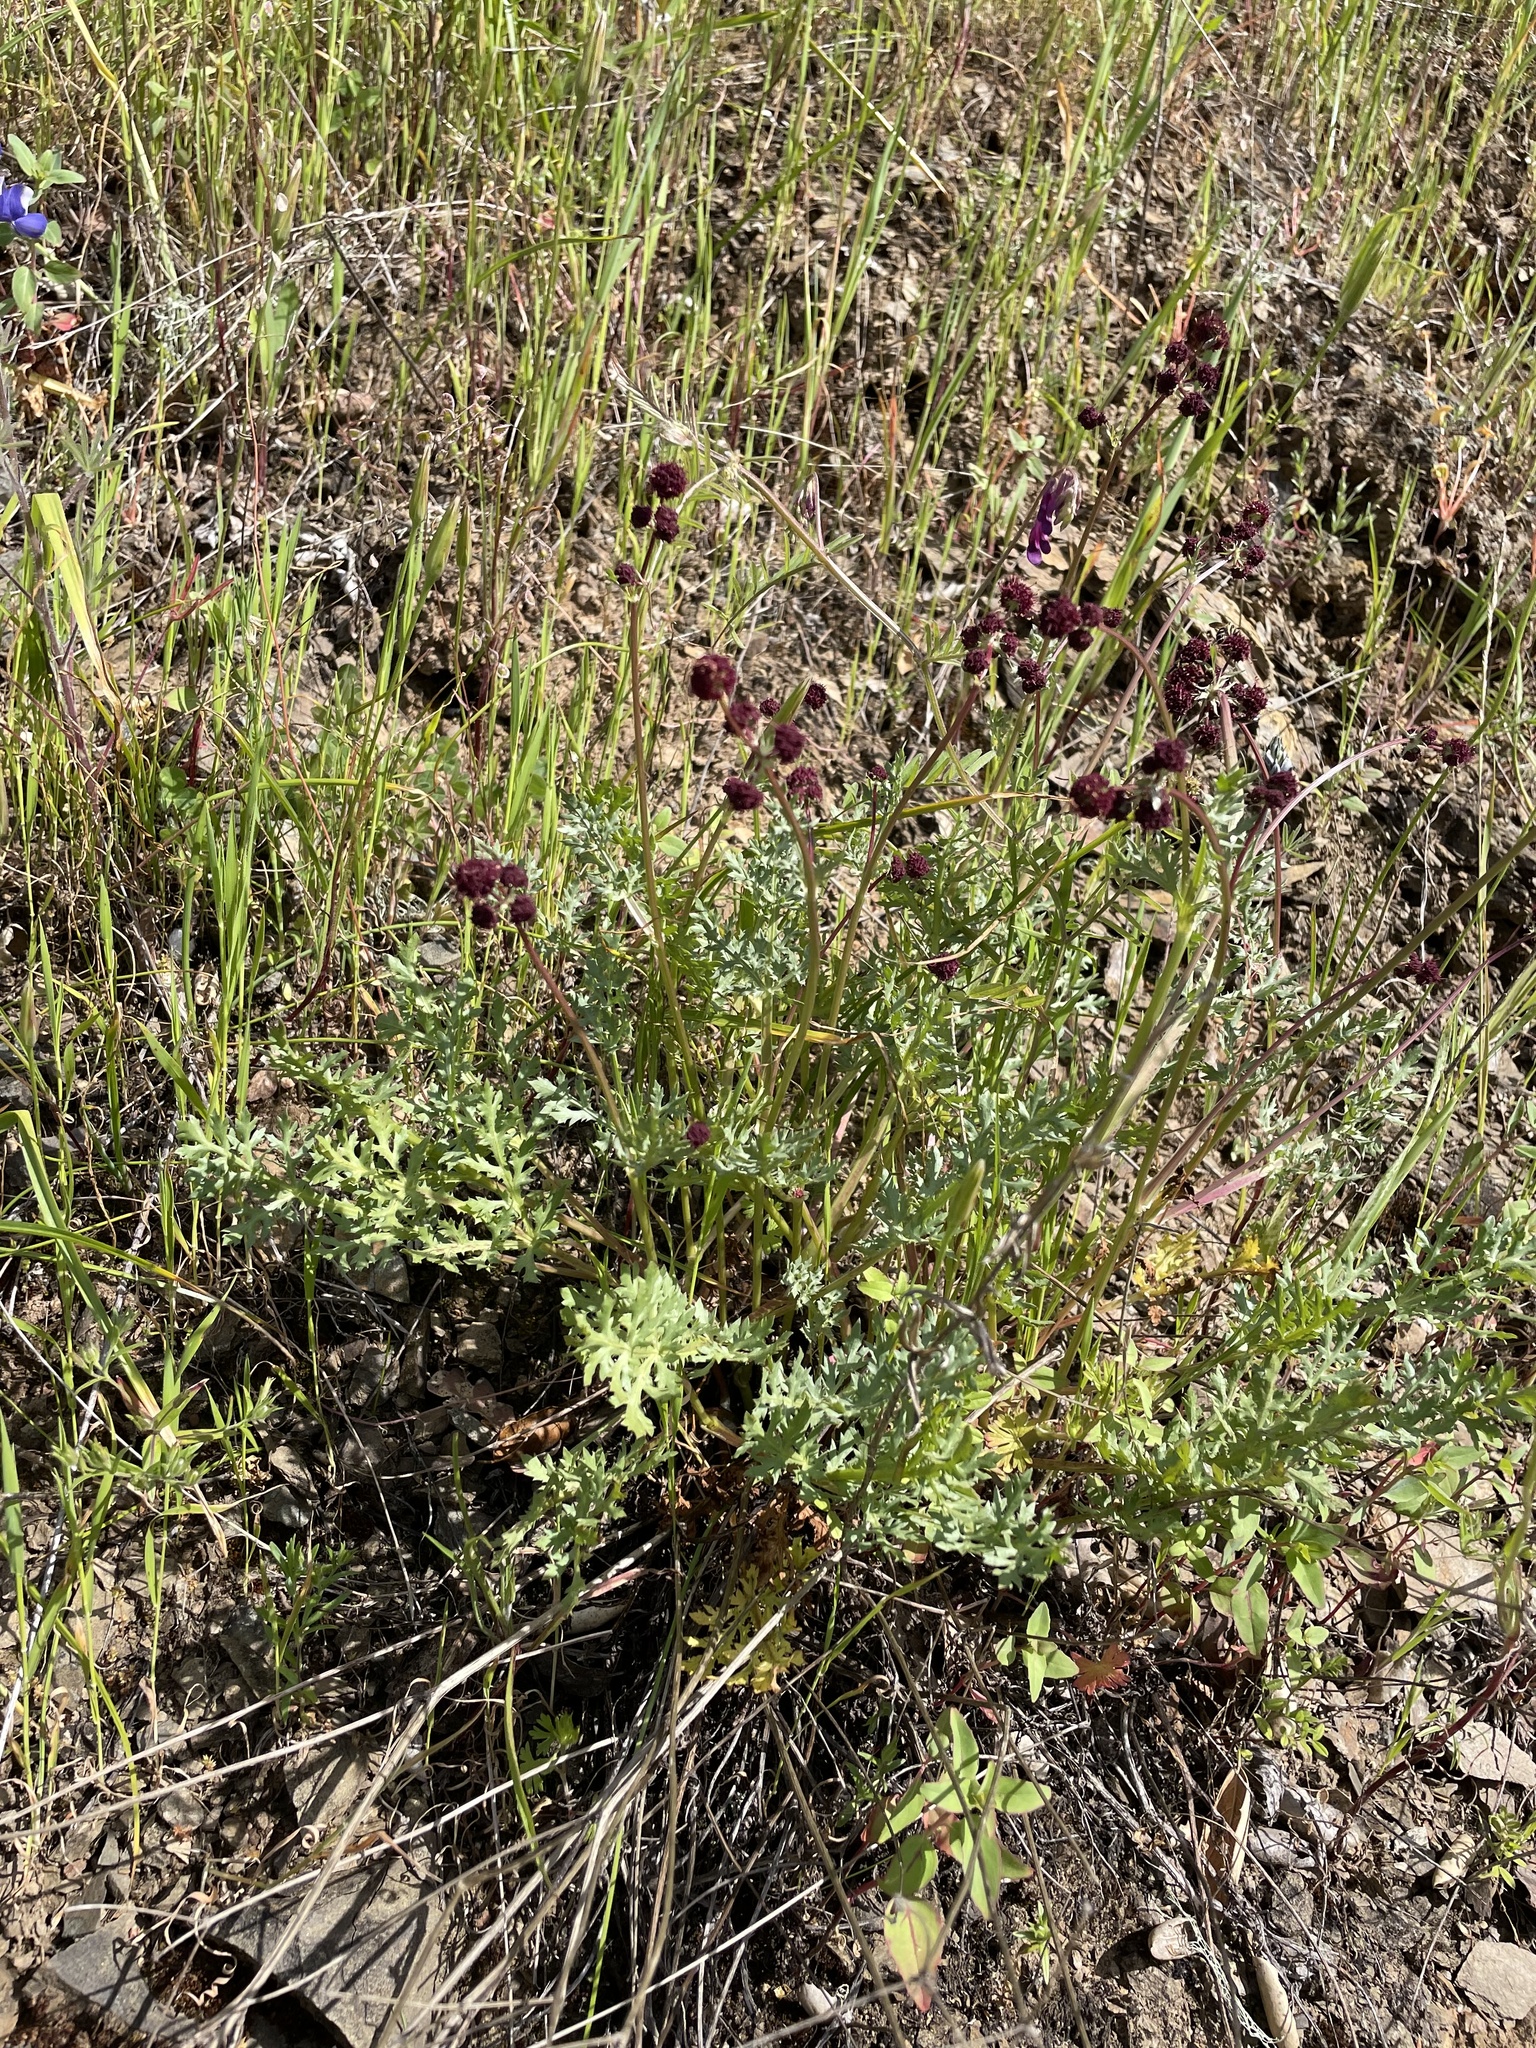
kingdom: Plantae
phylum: Tracheophyta
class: Magnoliopsida
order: Apiales
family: Apiaceae
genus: Sanicula
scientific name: Sanicula bipinnatifida
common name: Shoe-buttons
